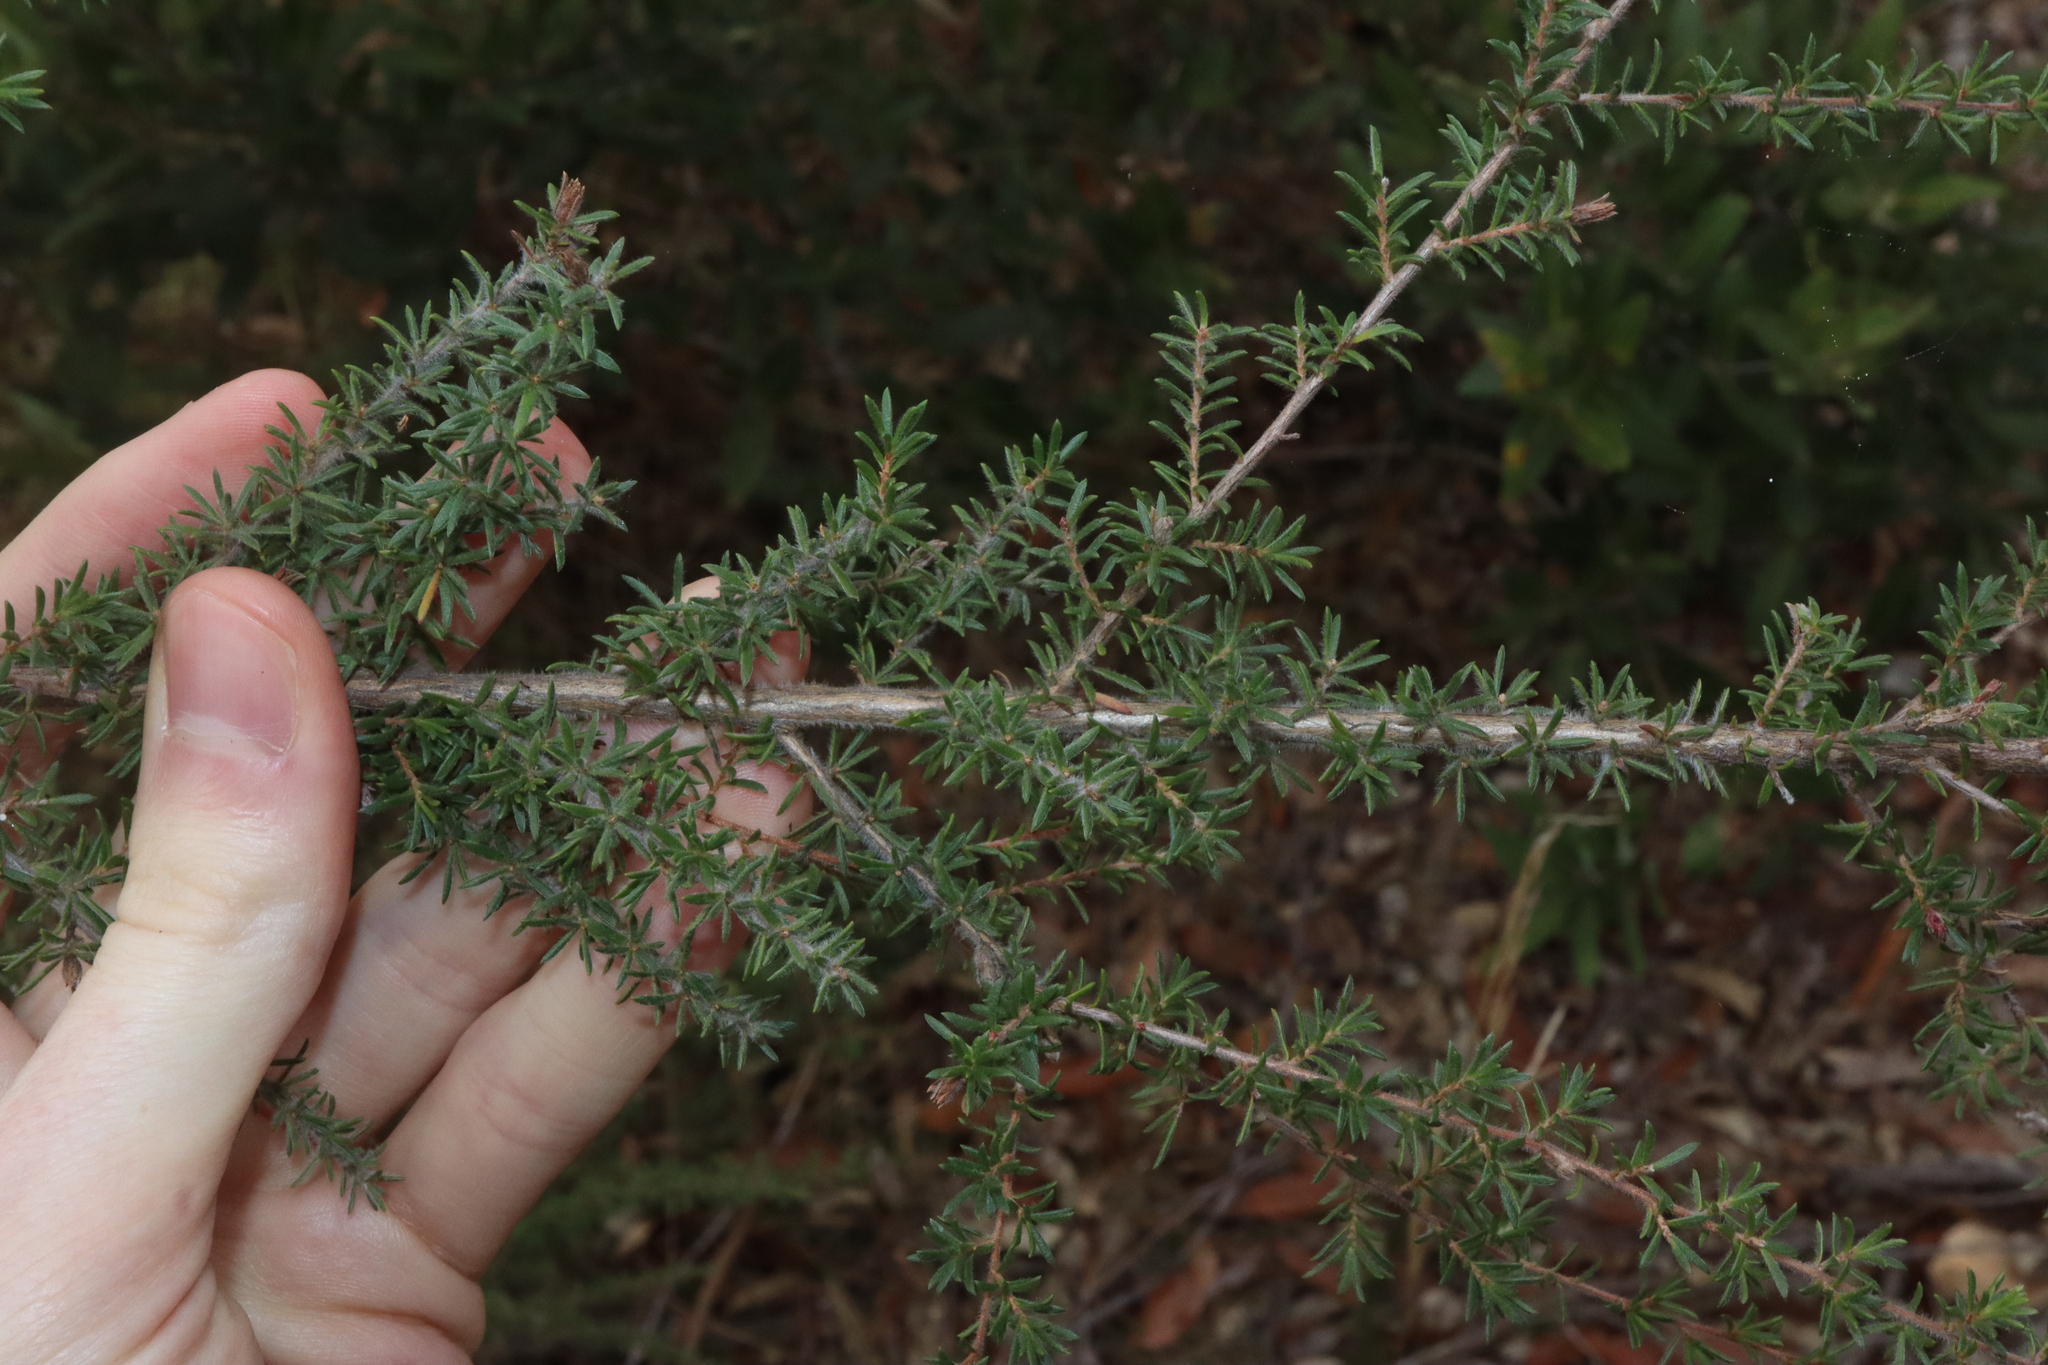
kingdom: Plantae
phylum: Tracheophyta
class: Magnoliopsida
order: Myrtales
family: Myrtaceae
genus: Kunzea
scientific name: Kunzea ambigua
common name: Tickbush
